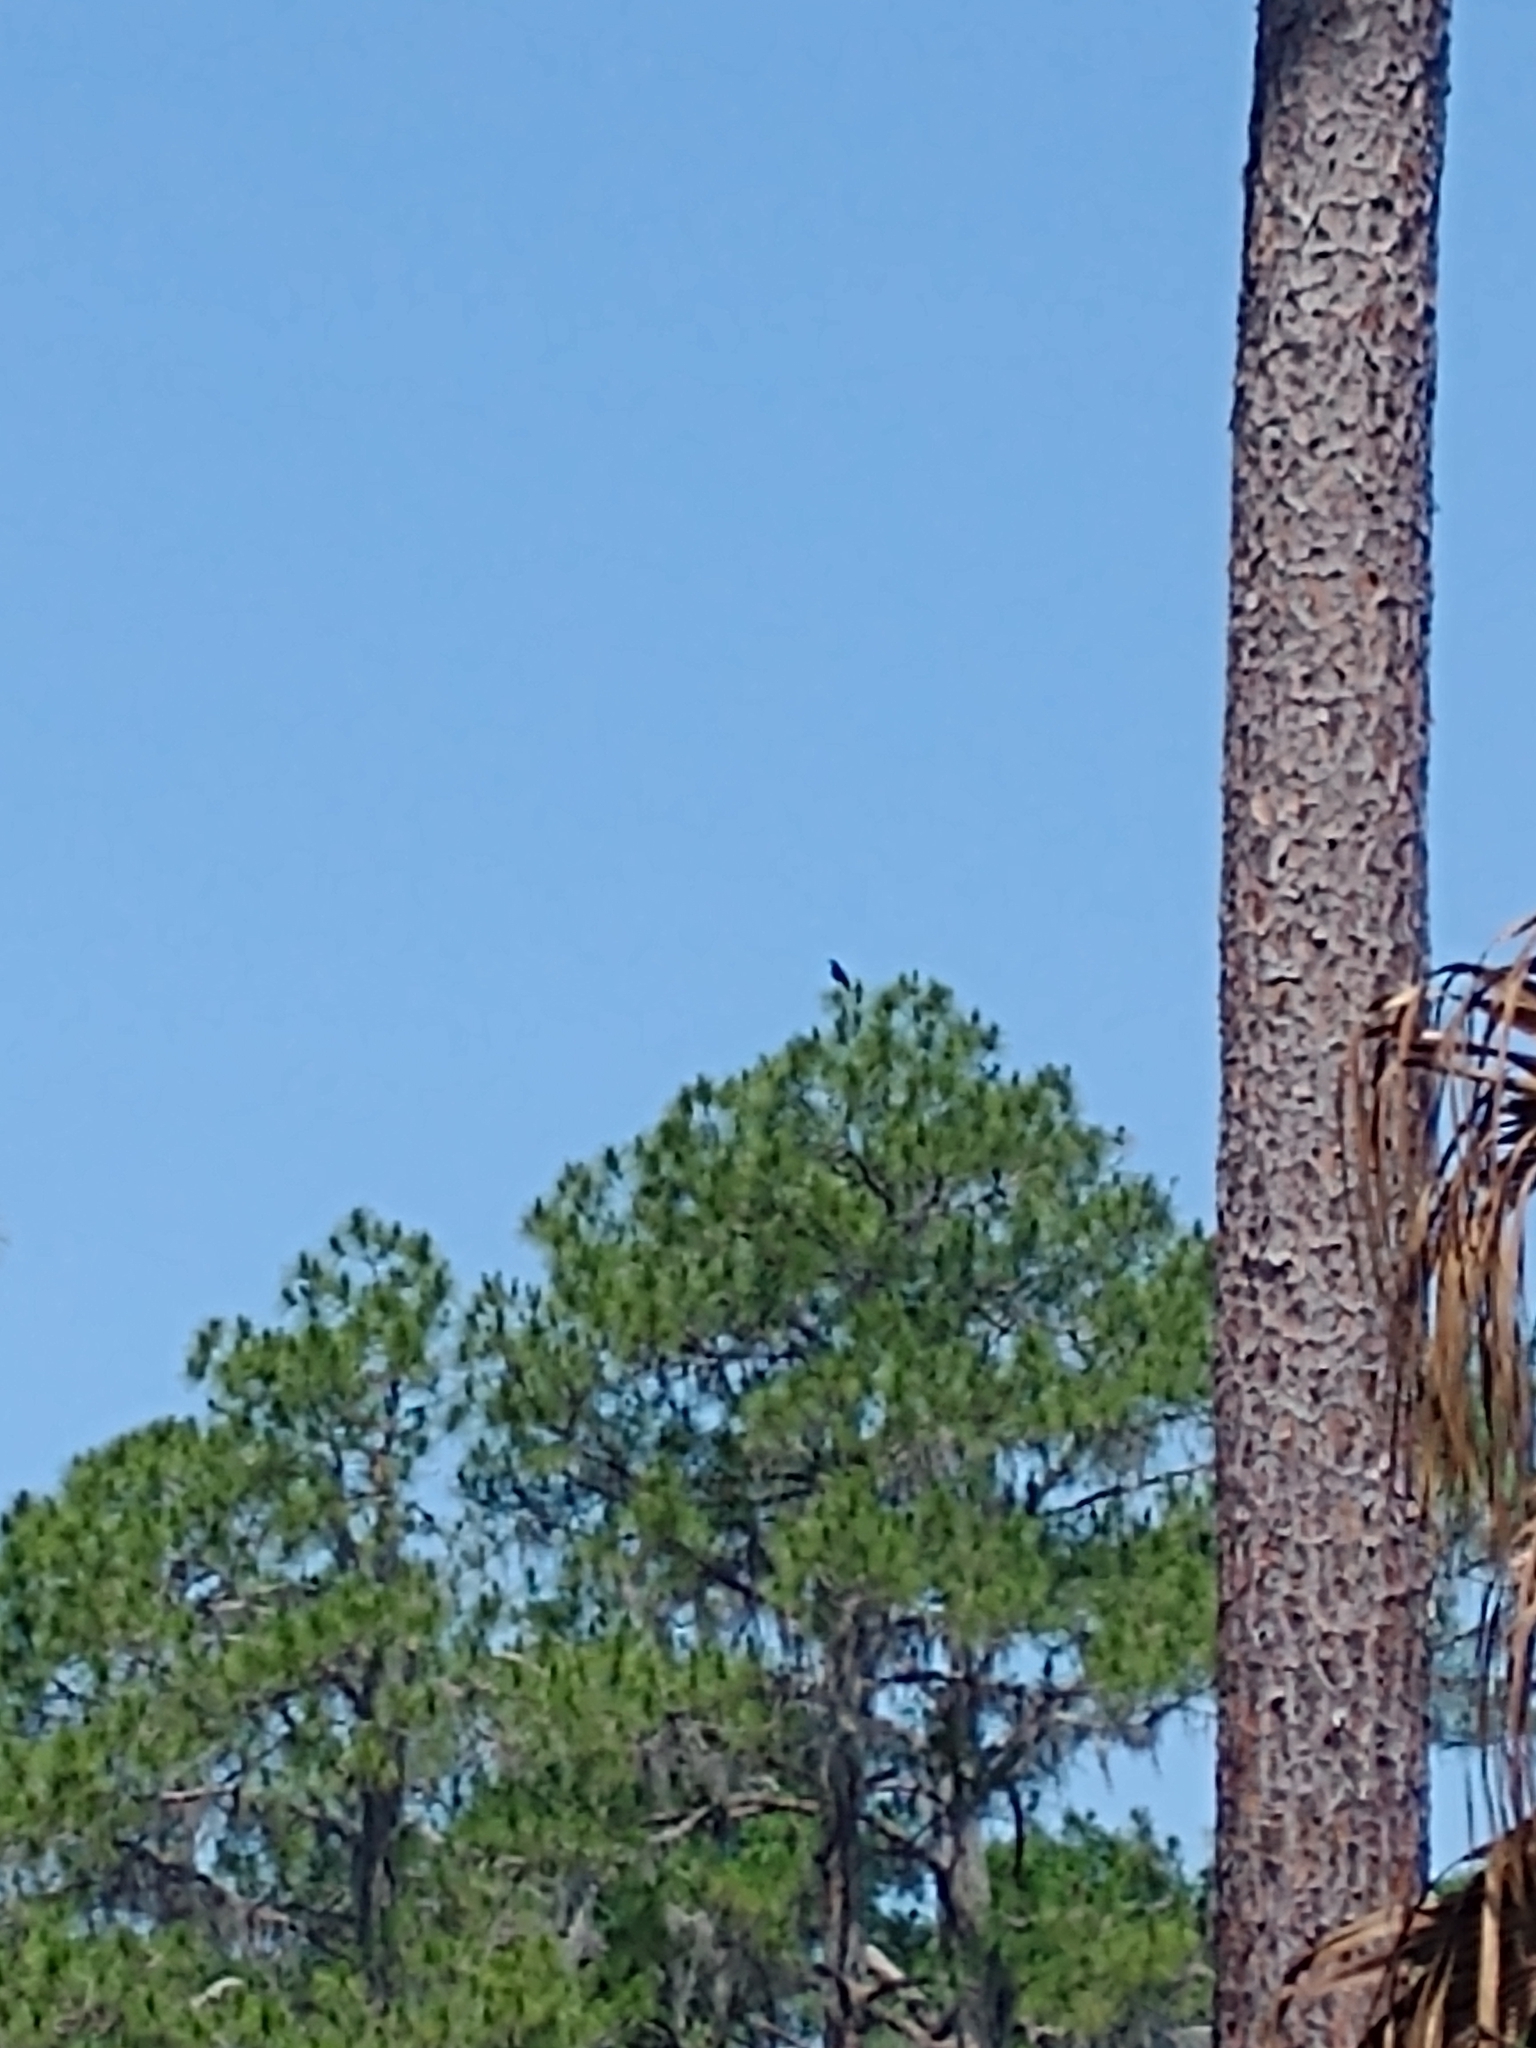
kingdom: Animalia
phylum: Chordata
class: Aves
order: Passeriformes
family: Corvidae
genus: Corvus
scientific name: Corvus brachyrhynchos
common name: American crow
